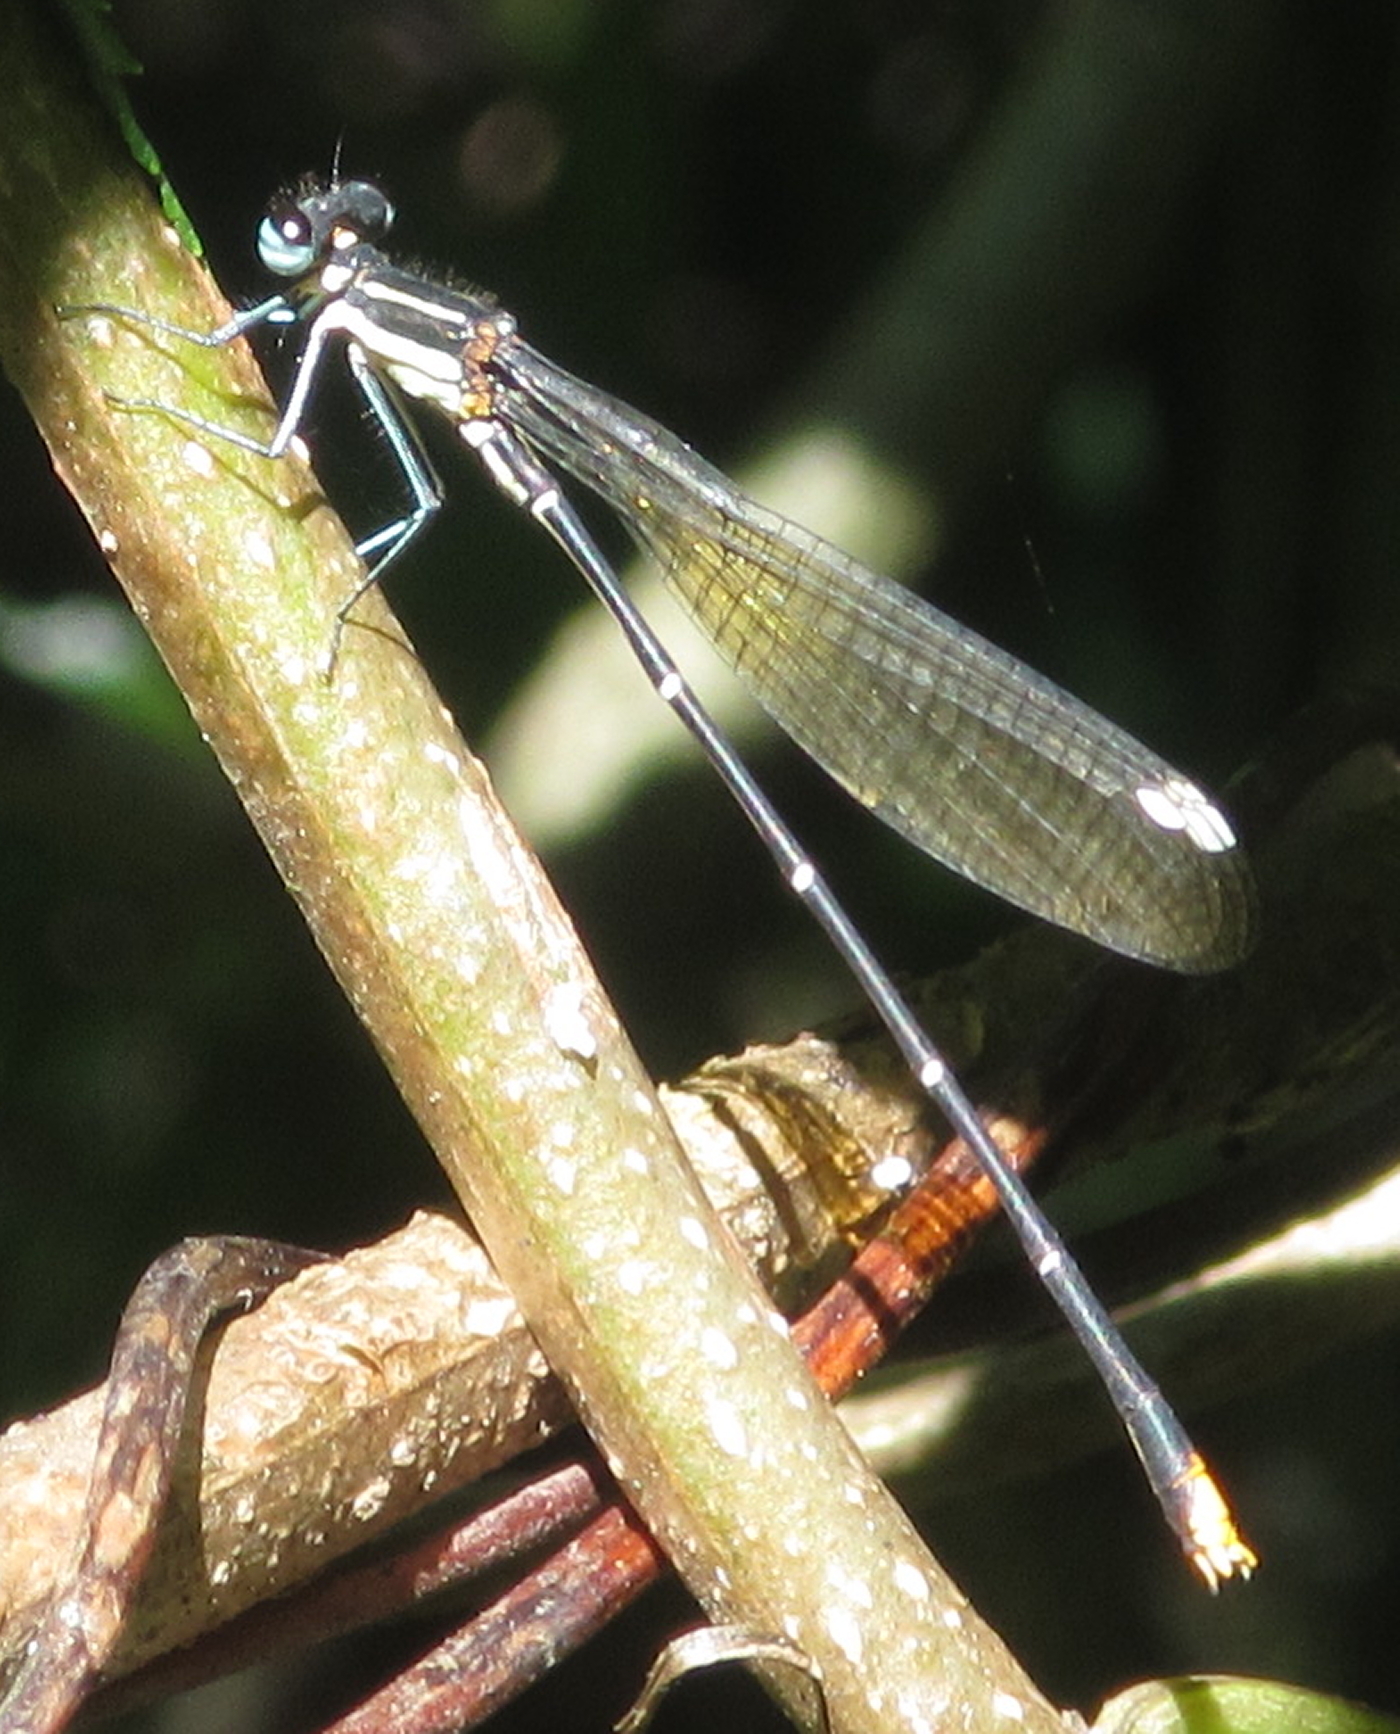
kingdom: Animalia
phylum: Arthropoda
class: Insecta
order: Odonata
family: Platycnemididae
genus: Allocnemis
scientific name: Allocnemis leucosticta
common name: Goldtail
